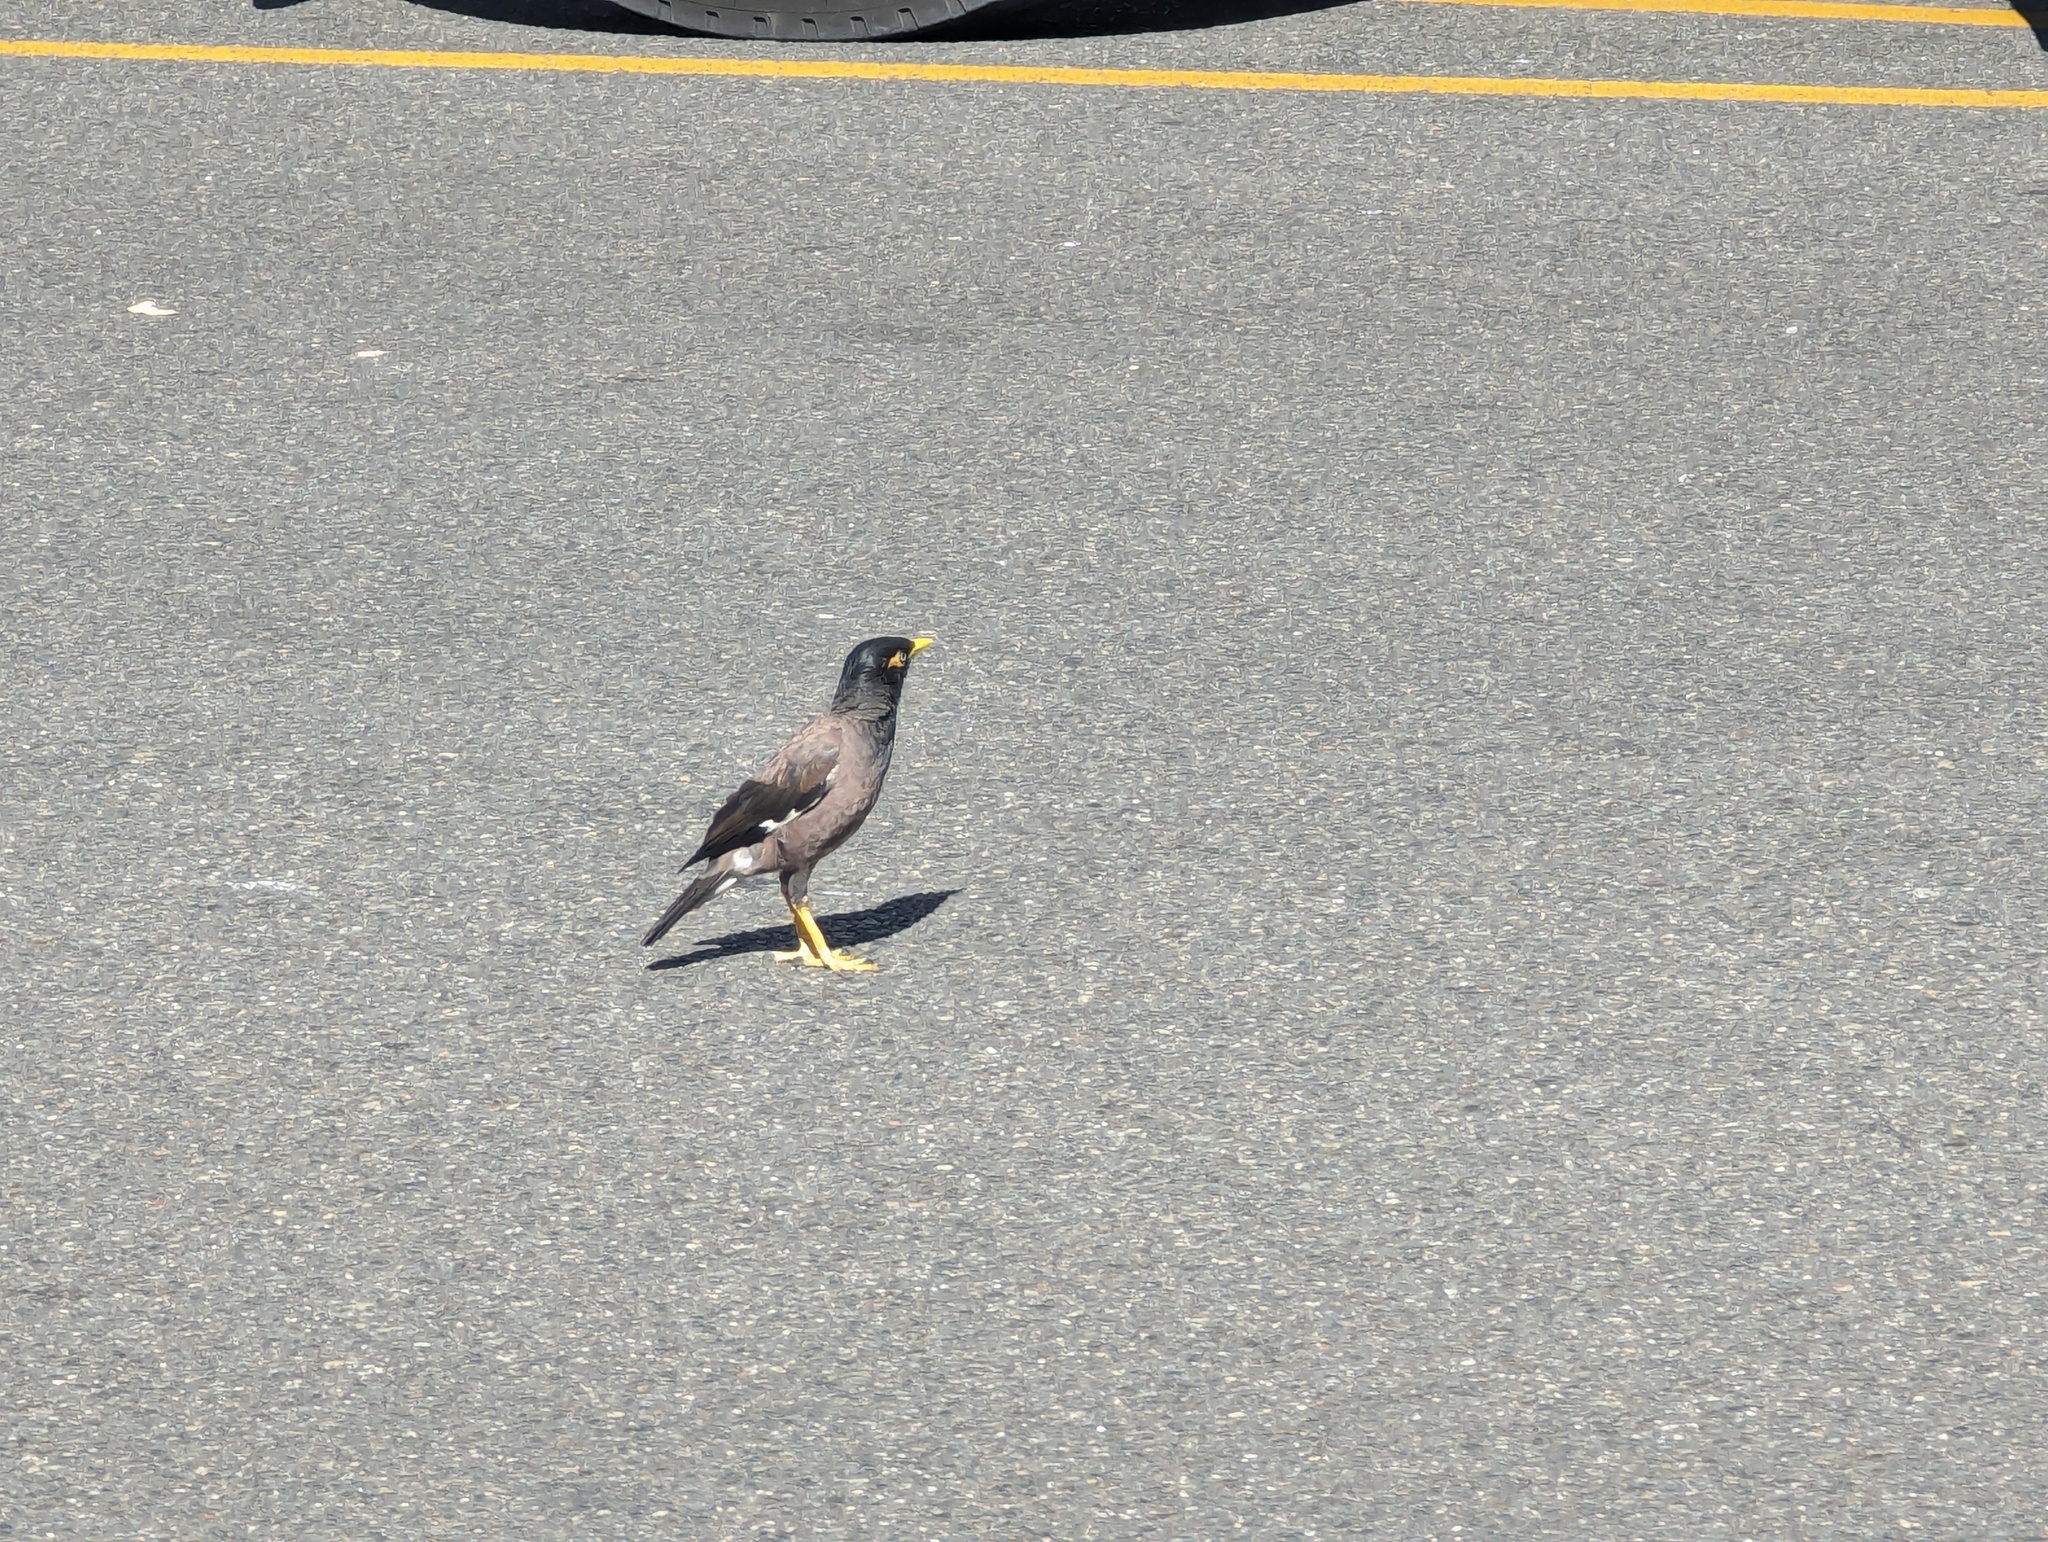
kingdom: Animalia
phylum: Chordata
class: Aves
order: Passeriformes
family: Sturnidae
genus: Acridotheres
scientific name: Acridotheres tristis
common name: Common myna
